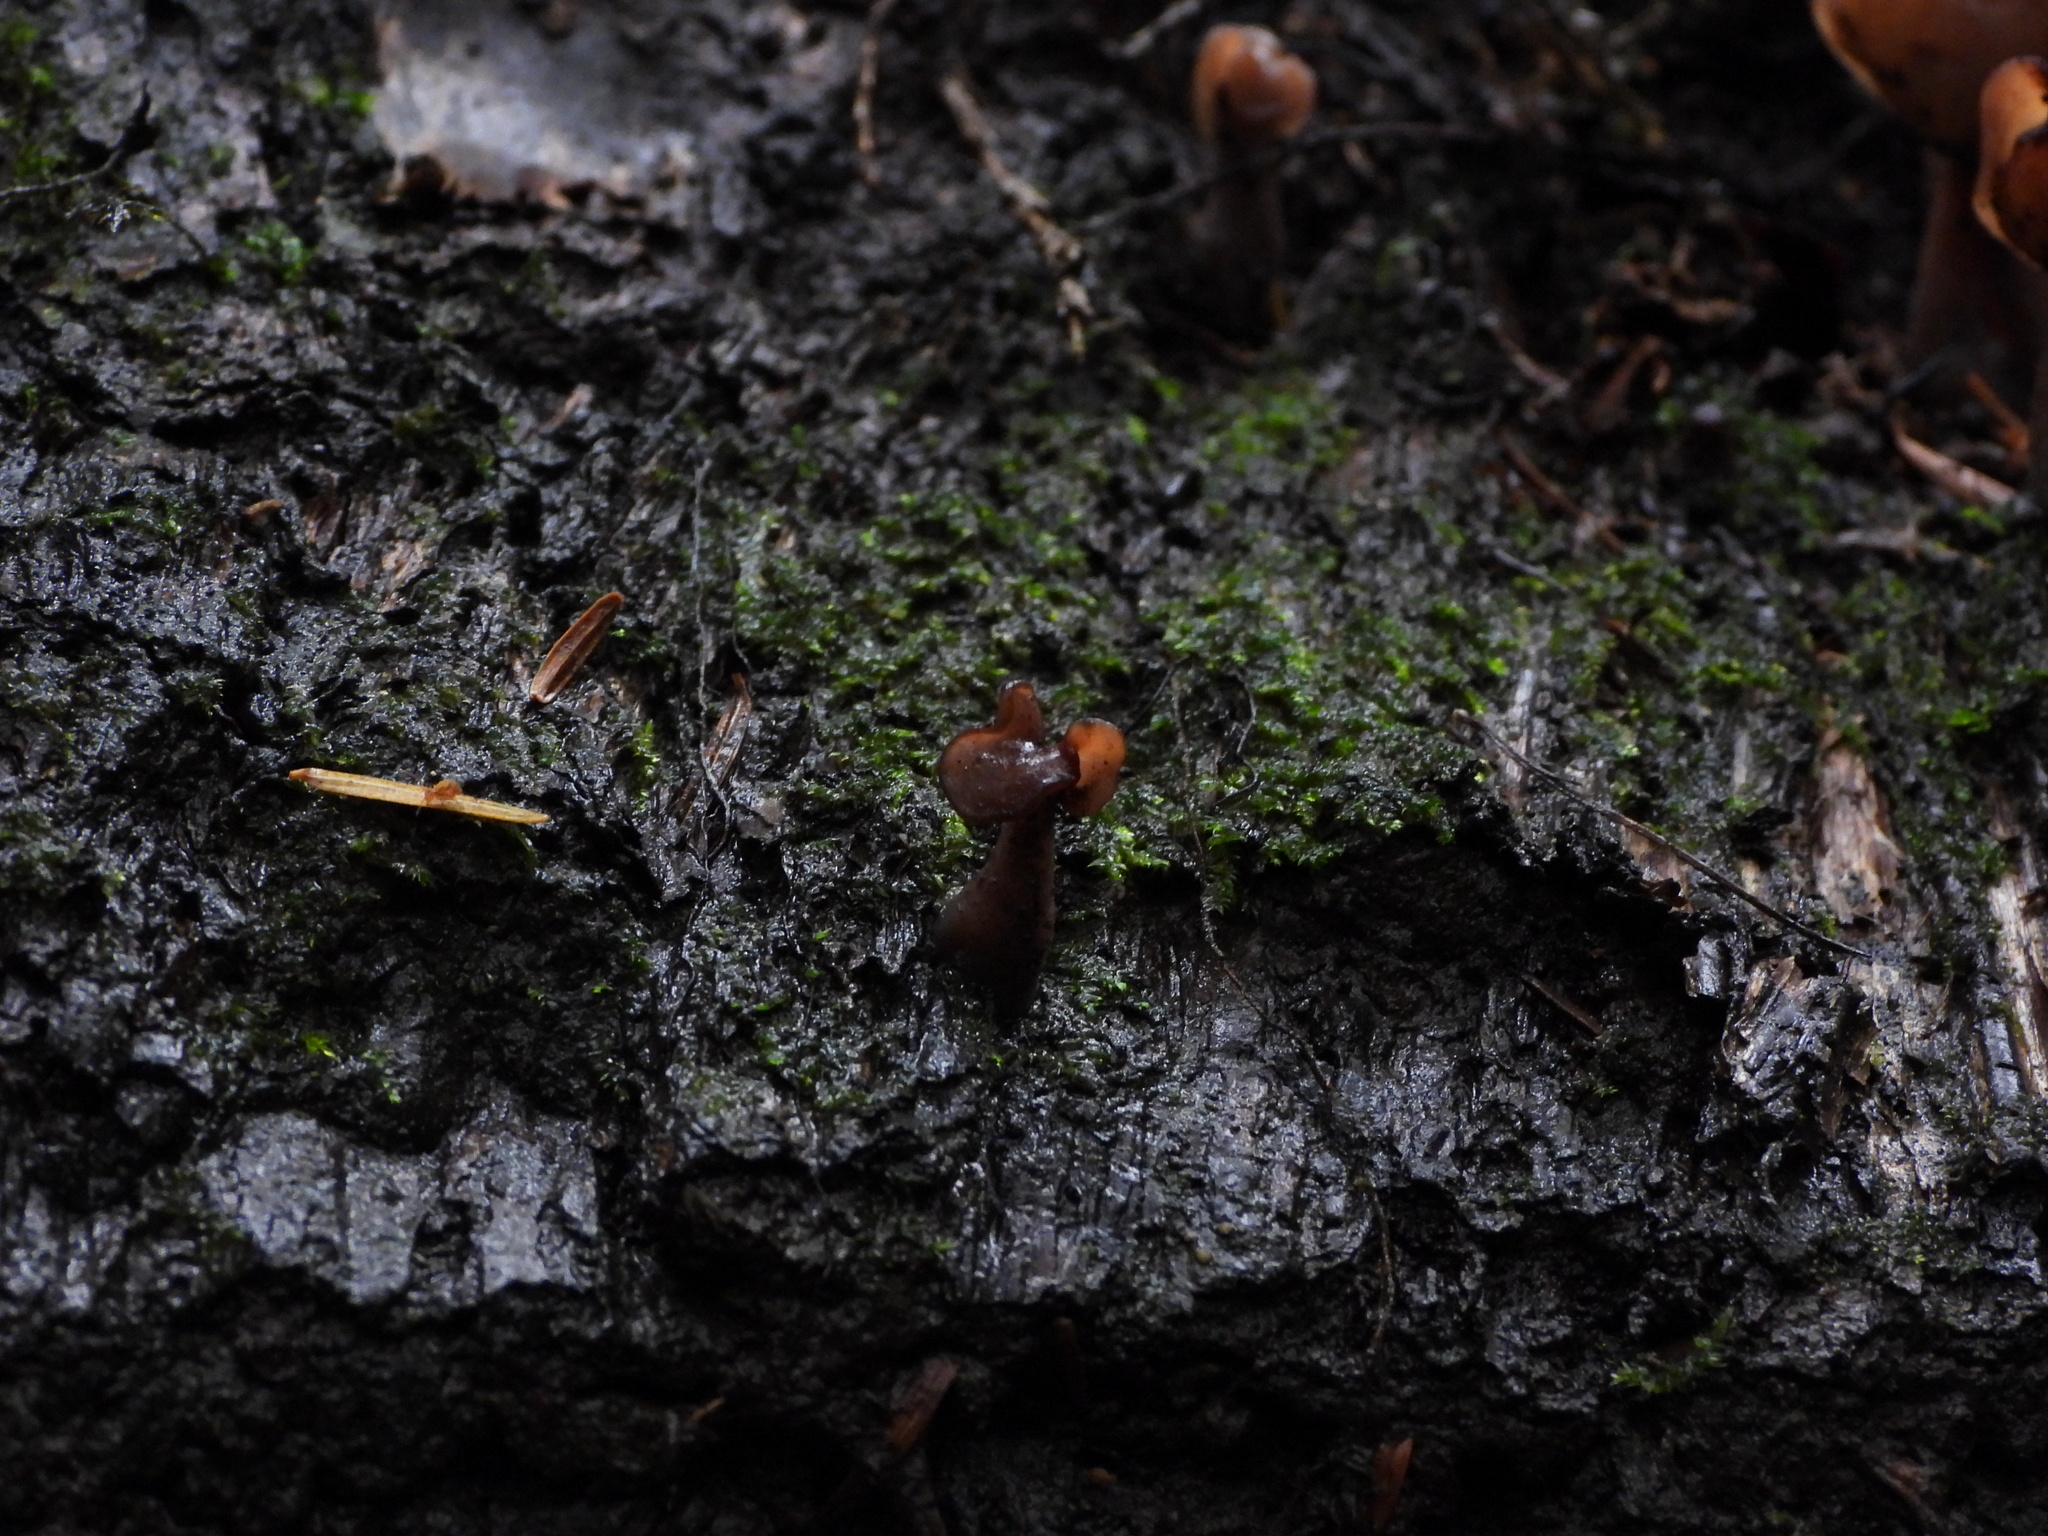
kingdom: Fungi
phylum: Ascomycota
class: Pezizomycetes
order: Pezizales
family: Discinaceae
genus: Gyromitra
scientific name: Gyromitra infula
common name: Pouched false morel
